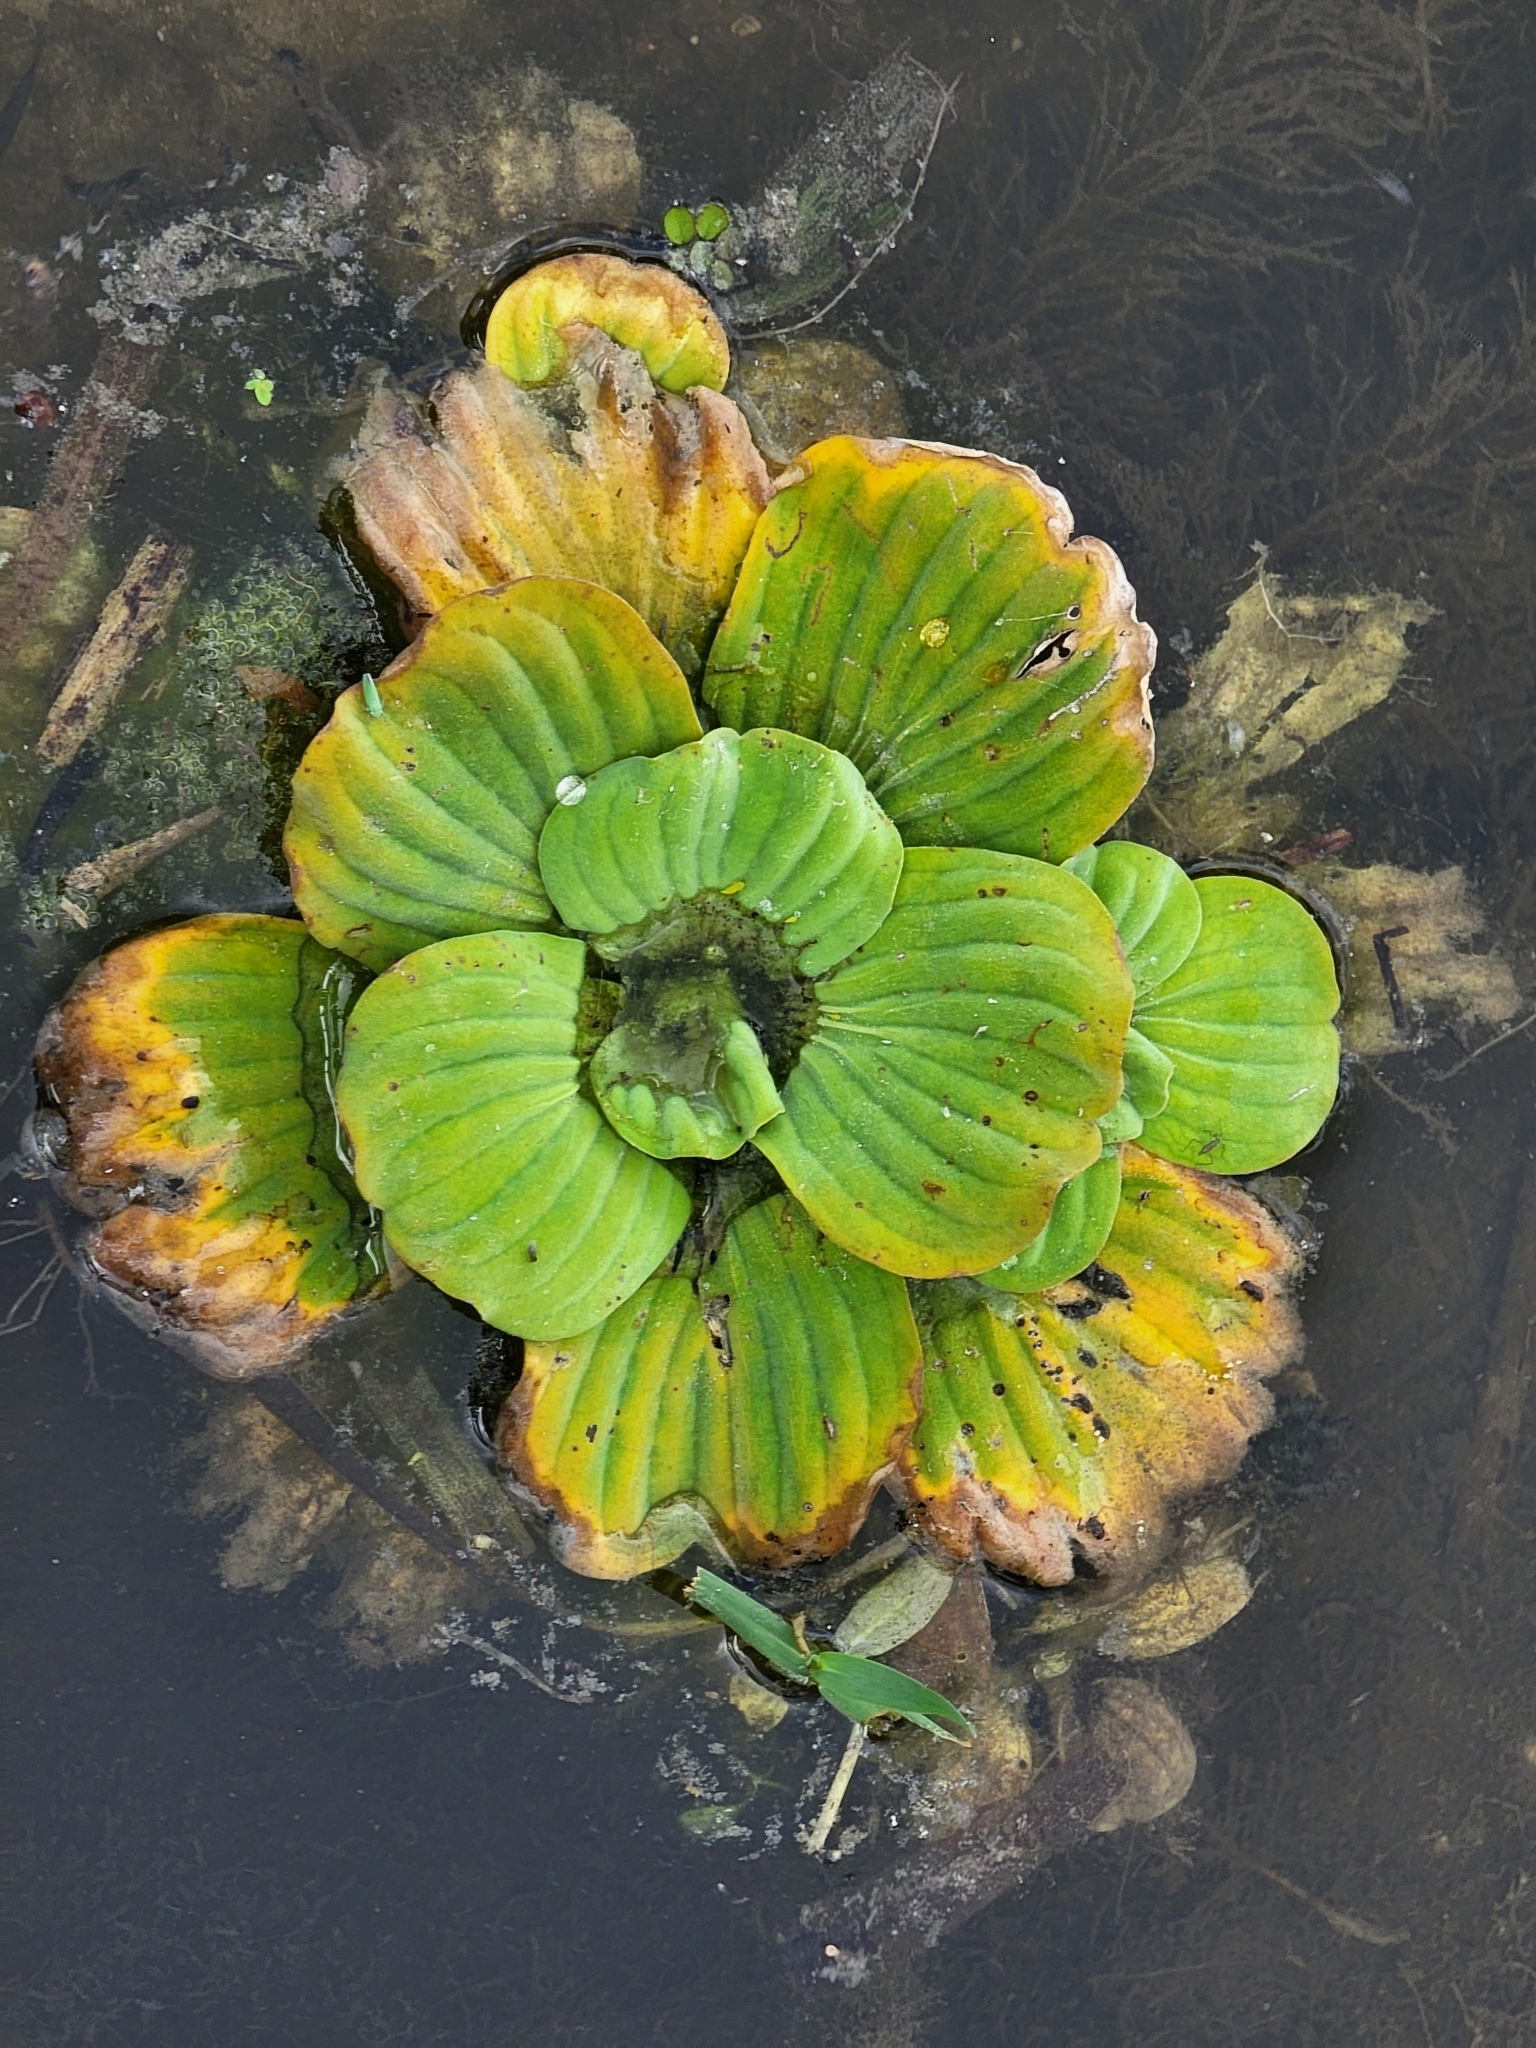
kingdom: Plantae
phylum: Tracheophyta
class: Liliopsida
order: Alismatales
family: Araceae
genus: Pistia
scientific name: Pistia stratiotes
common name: Water lettuce
